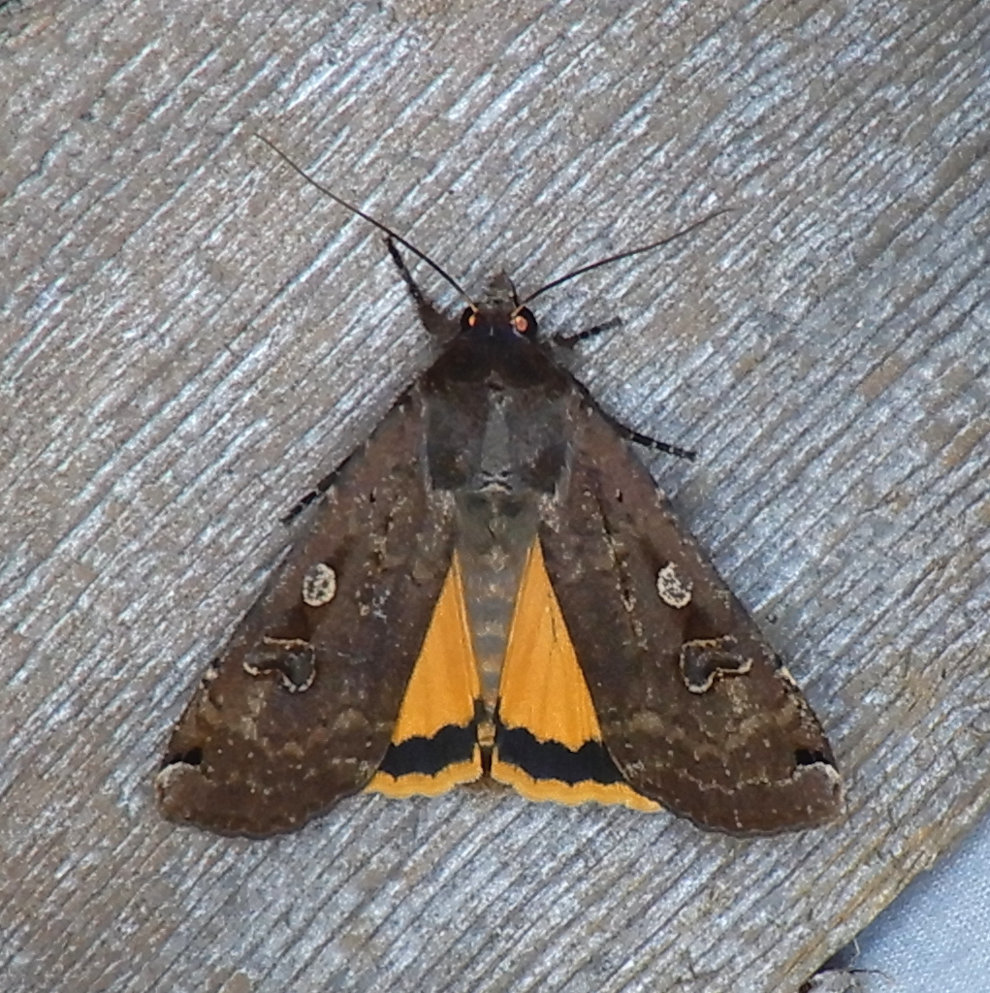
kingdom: Animalia
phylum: Arthropoda
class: Insecta
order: Lepidoptera
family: Noctuidae
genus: Noctua
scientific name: Noctua pronuba
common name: Large yellow underwing
